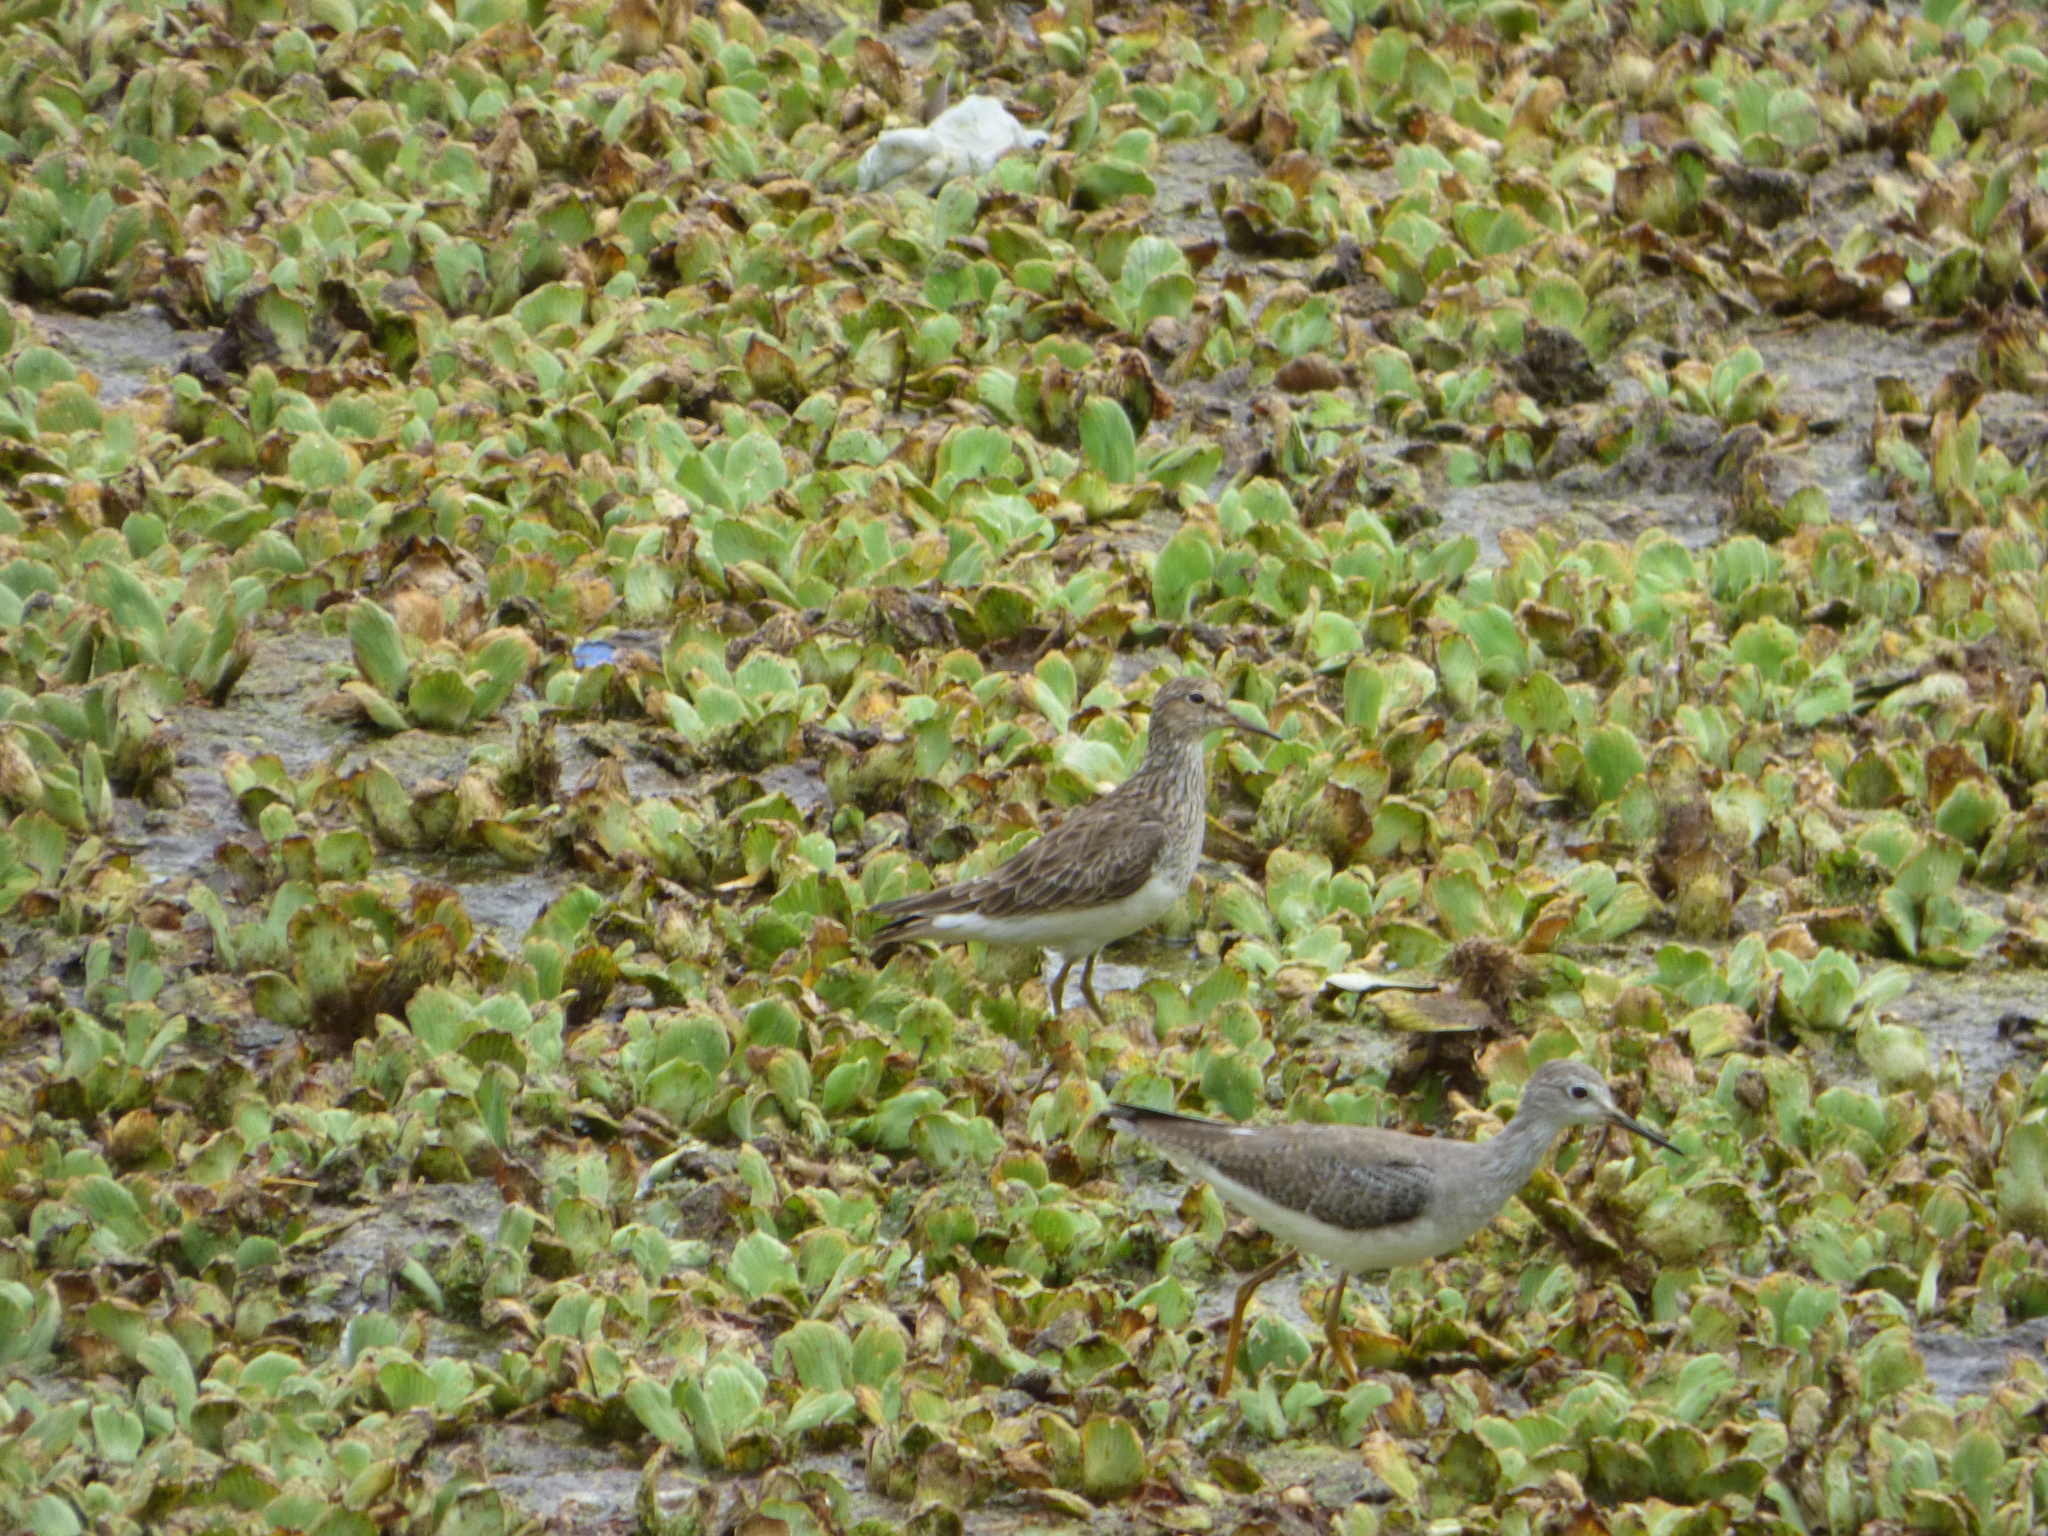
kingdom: Animalia
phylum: Chordata
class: Aves
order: Charadriiformes
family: Scolopacidae
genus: Calidris
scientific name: Calidris melanotos
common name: Pectoral sandpiper
